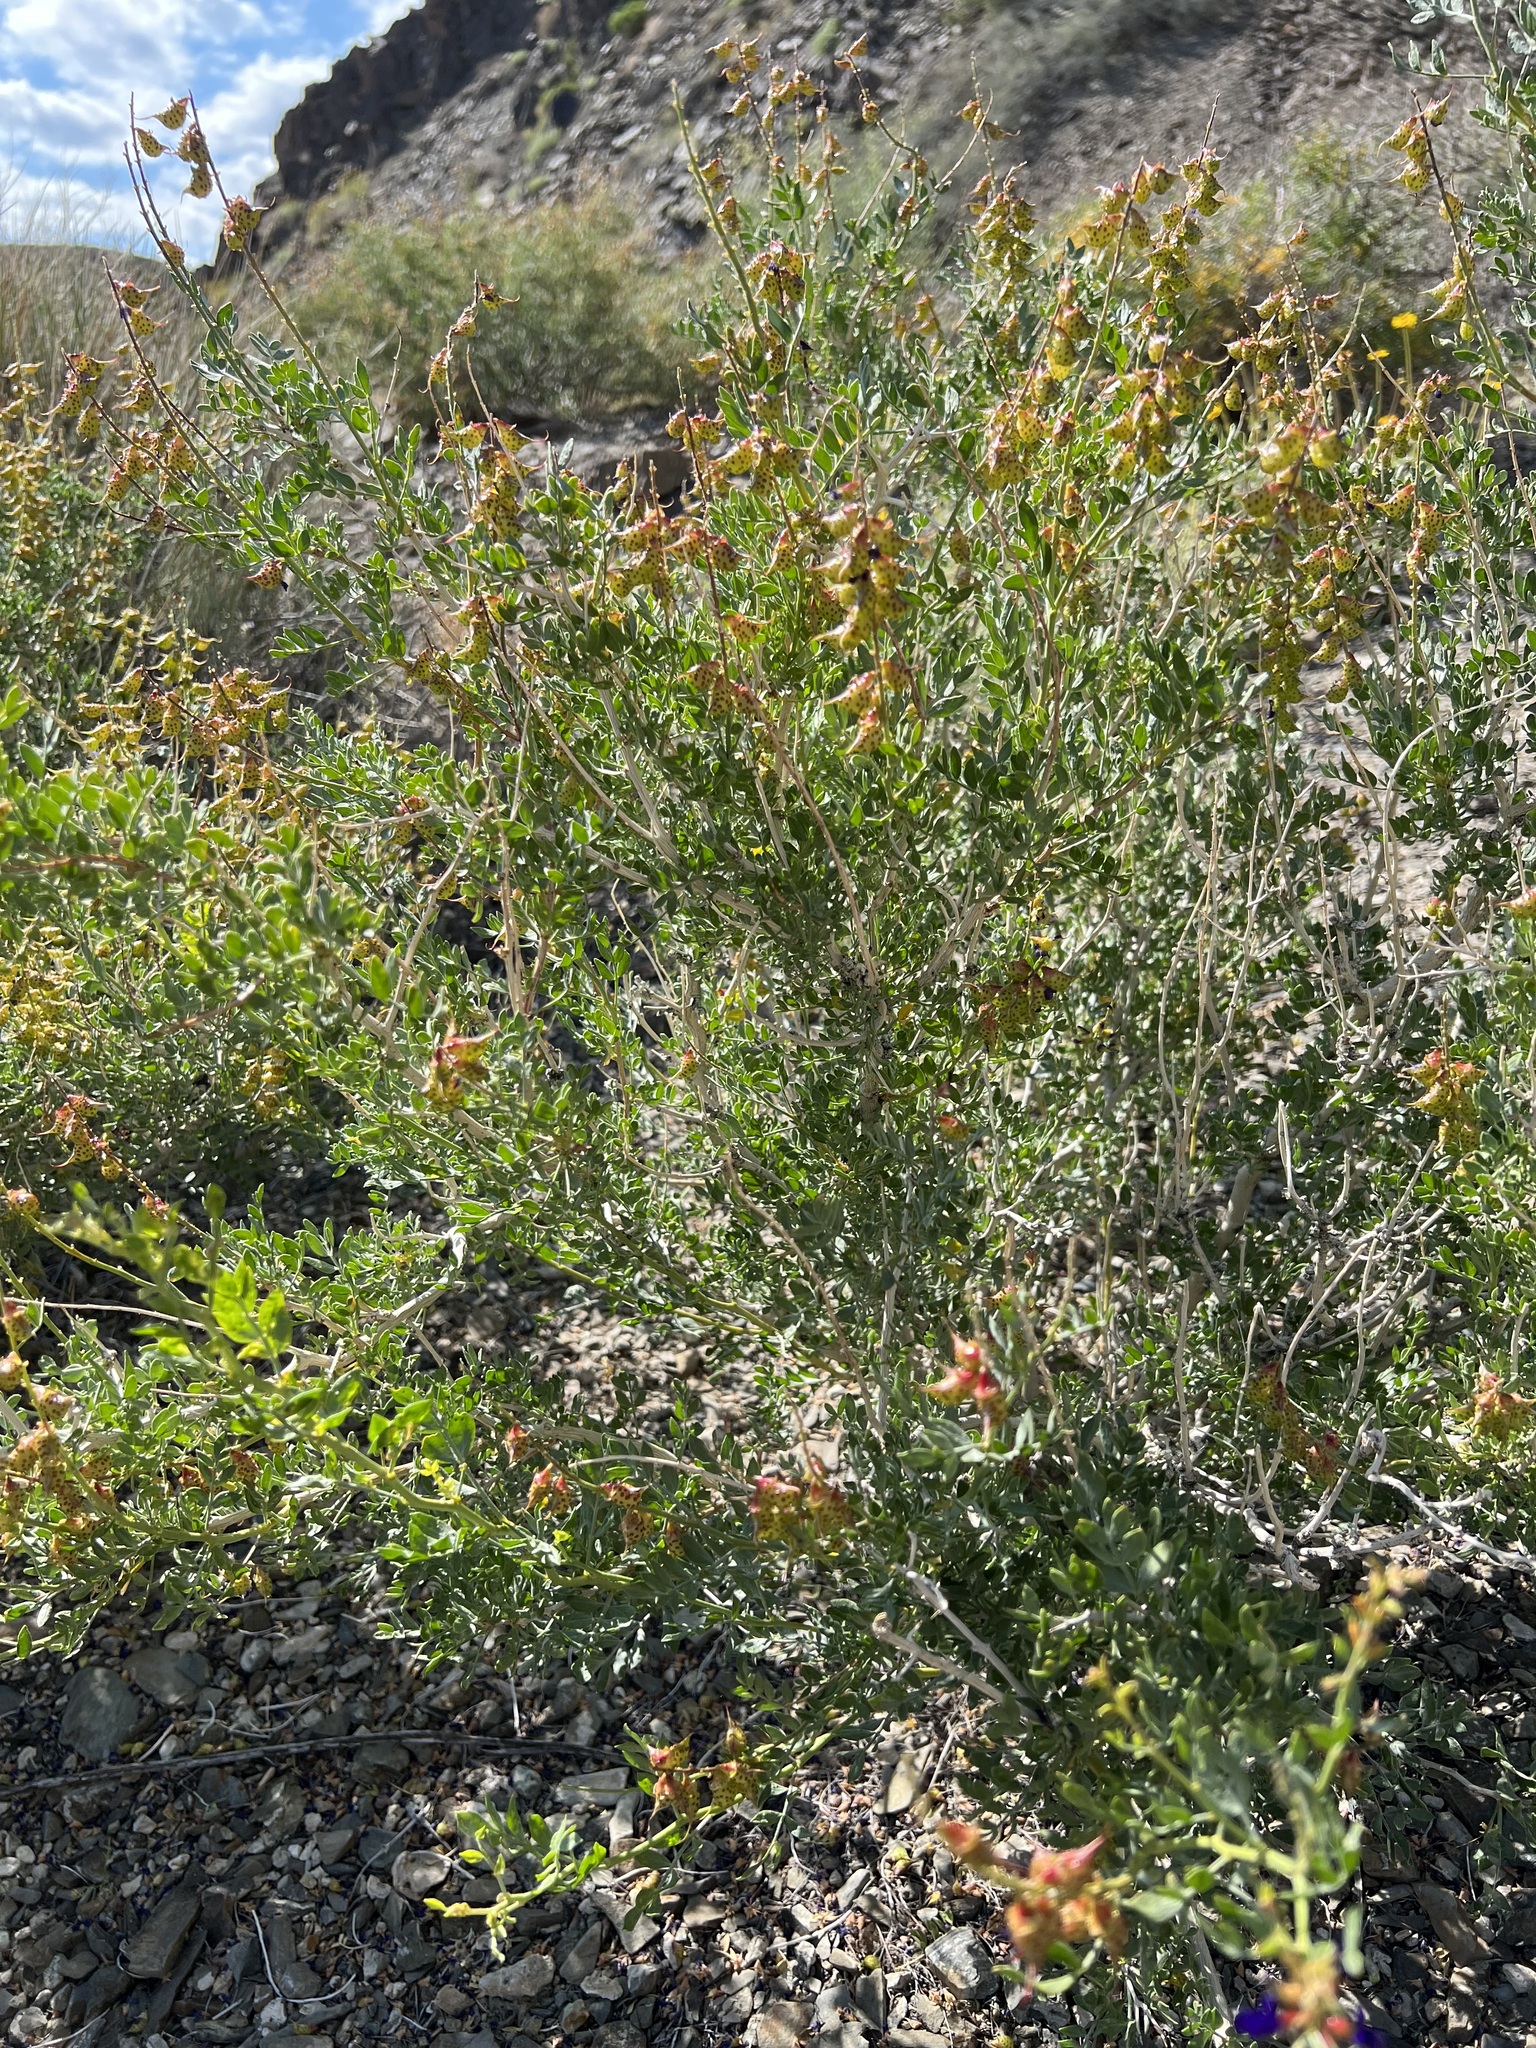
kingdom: Plantae
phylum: Tracheophyta
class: Magnoliopsida
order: Fabales
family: Fabaceae
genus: Psorothamnus
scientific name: Psorothamnus arborescens
